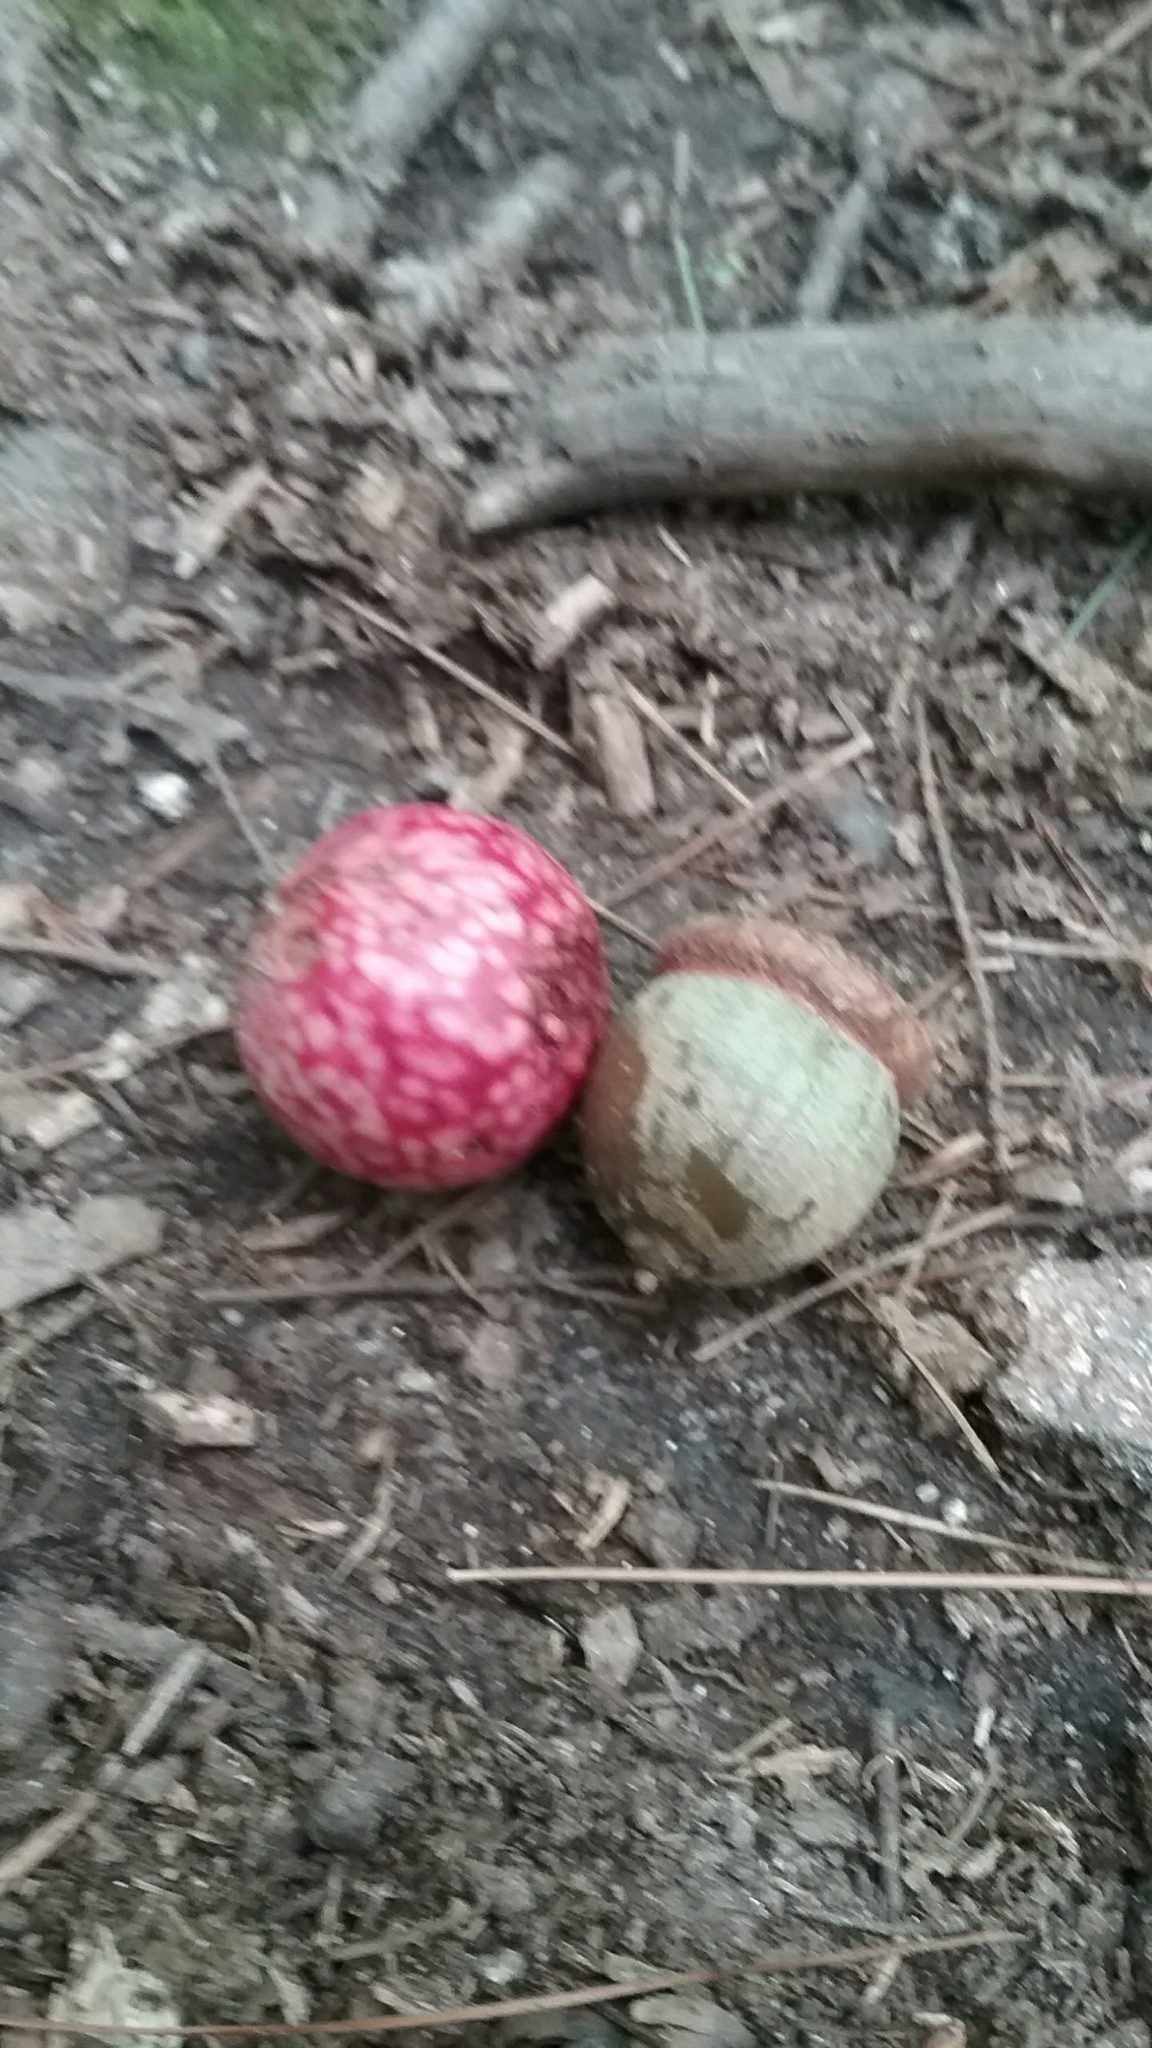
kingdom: Animalia
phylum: Arthropoda
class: Insecta
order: Hymenoptera
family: Cynipidae
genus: Amphibolips
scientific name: Amphibolips
